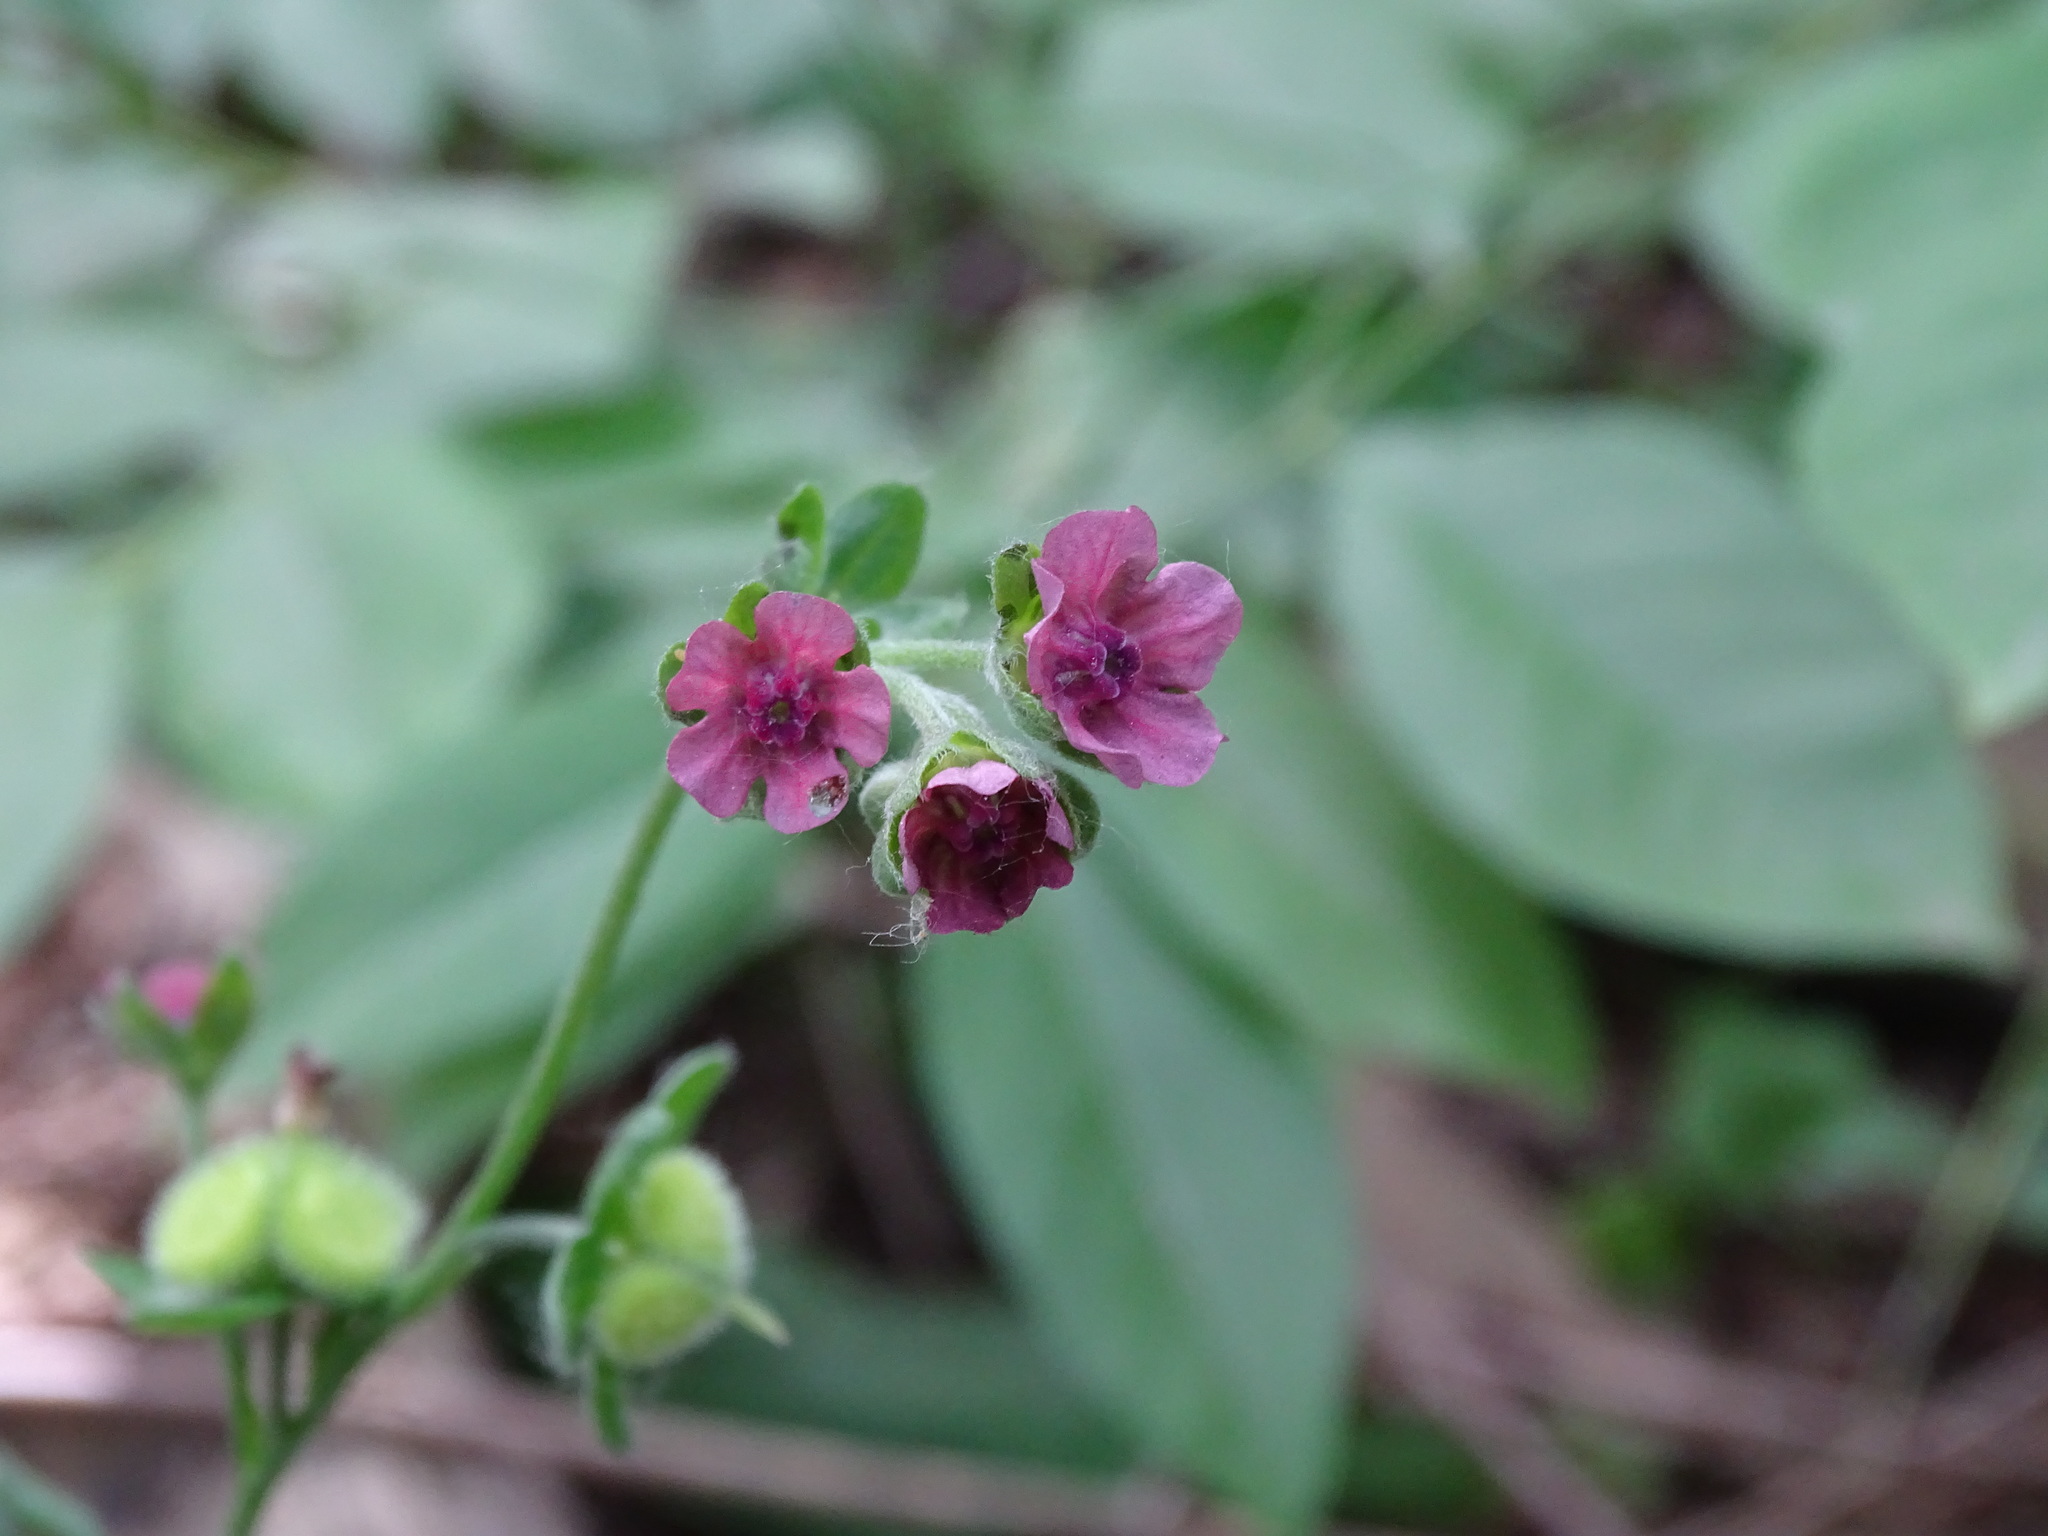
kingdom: Plantae
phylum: Tracheophyta
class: Magnoliopsida
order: Boraginales
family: Boraginaceae
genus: Cynoglossum
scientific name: Cynoglossum officinale
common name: Hound's-tongue
